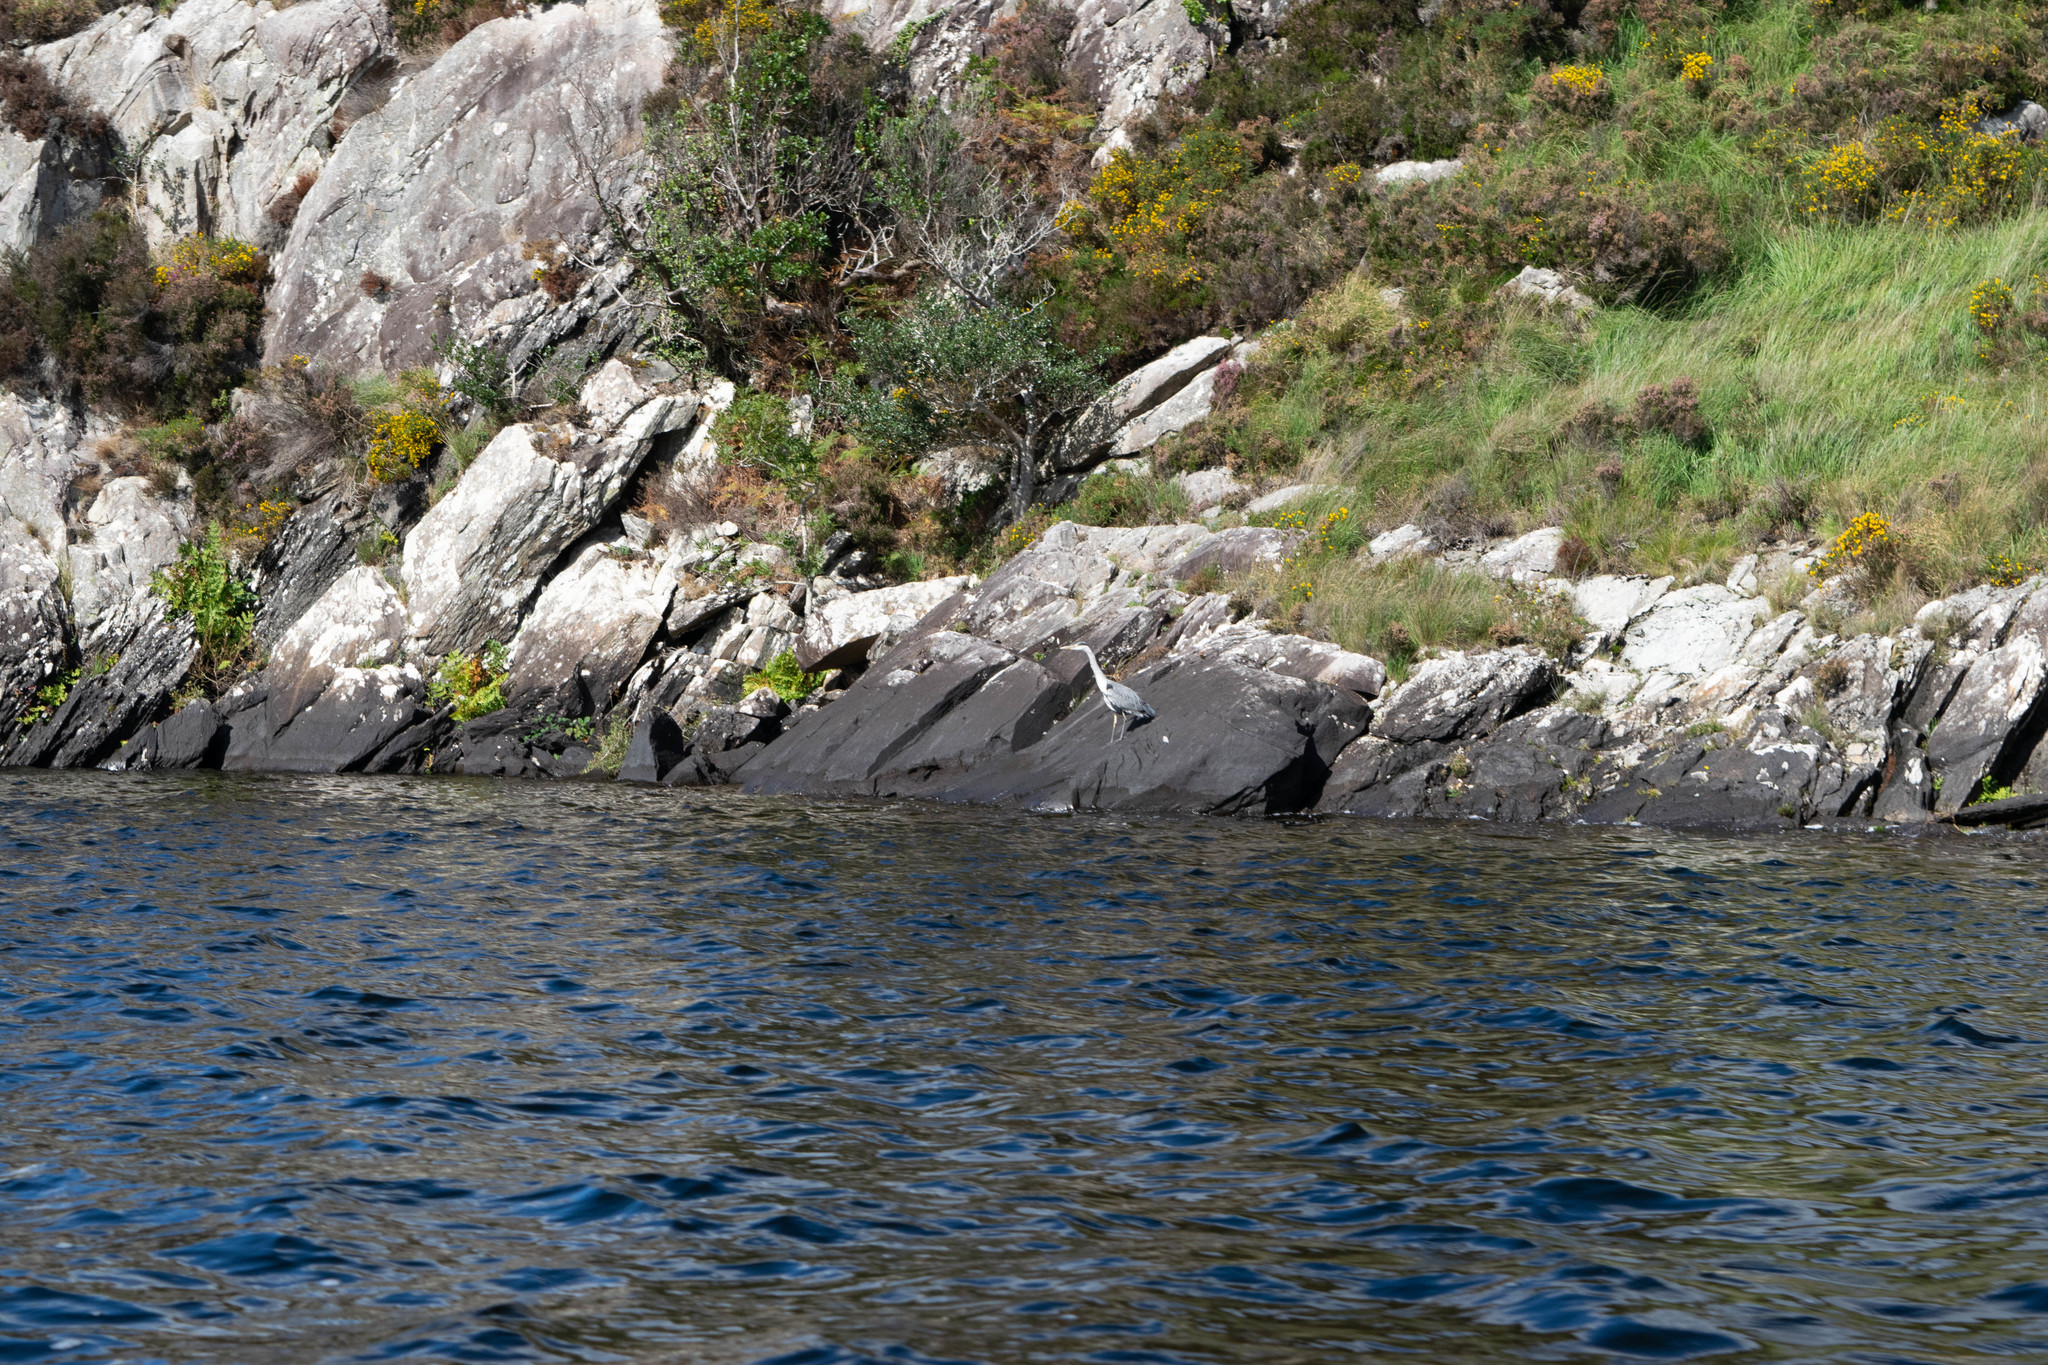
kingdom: Animalia
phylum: Chordata
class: Aves
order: Pelecaniformes
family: Ardeidae
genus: Ardea
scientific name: Ardea cinerea
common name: Grey heron
